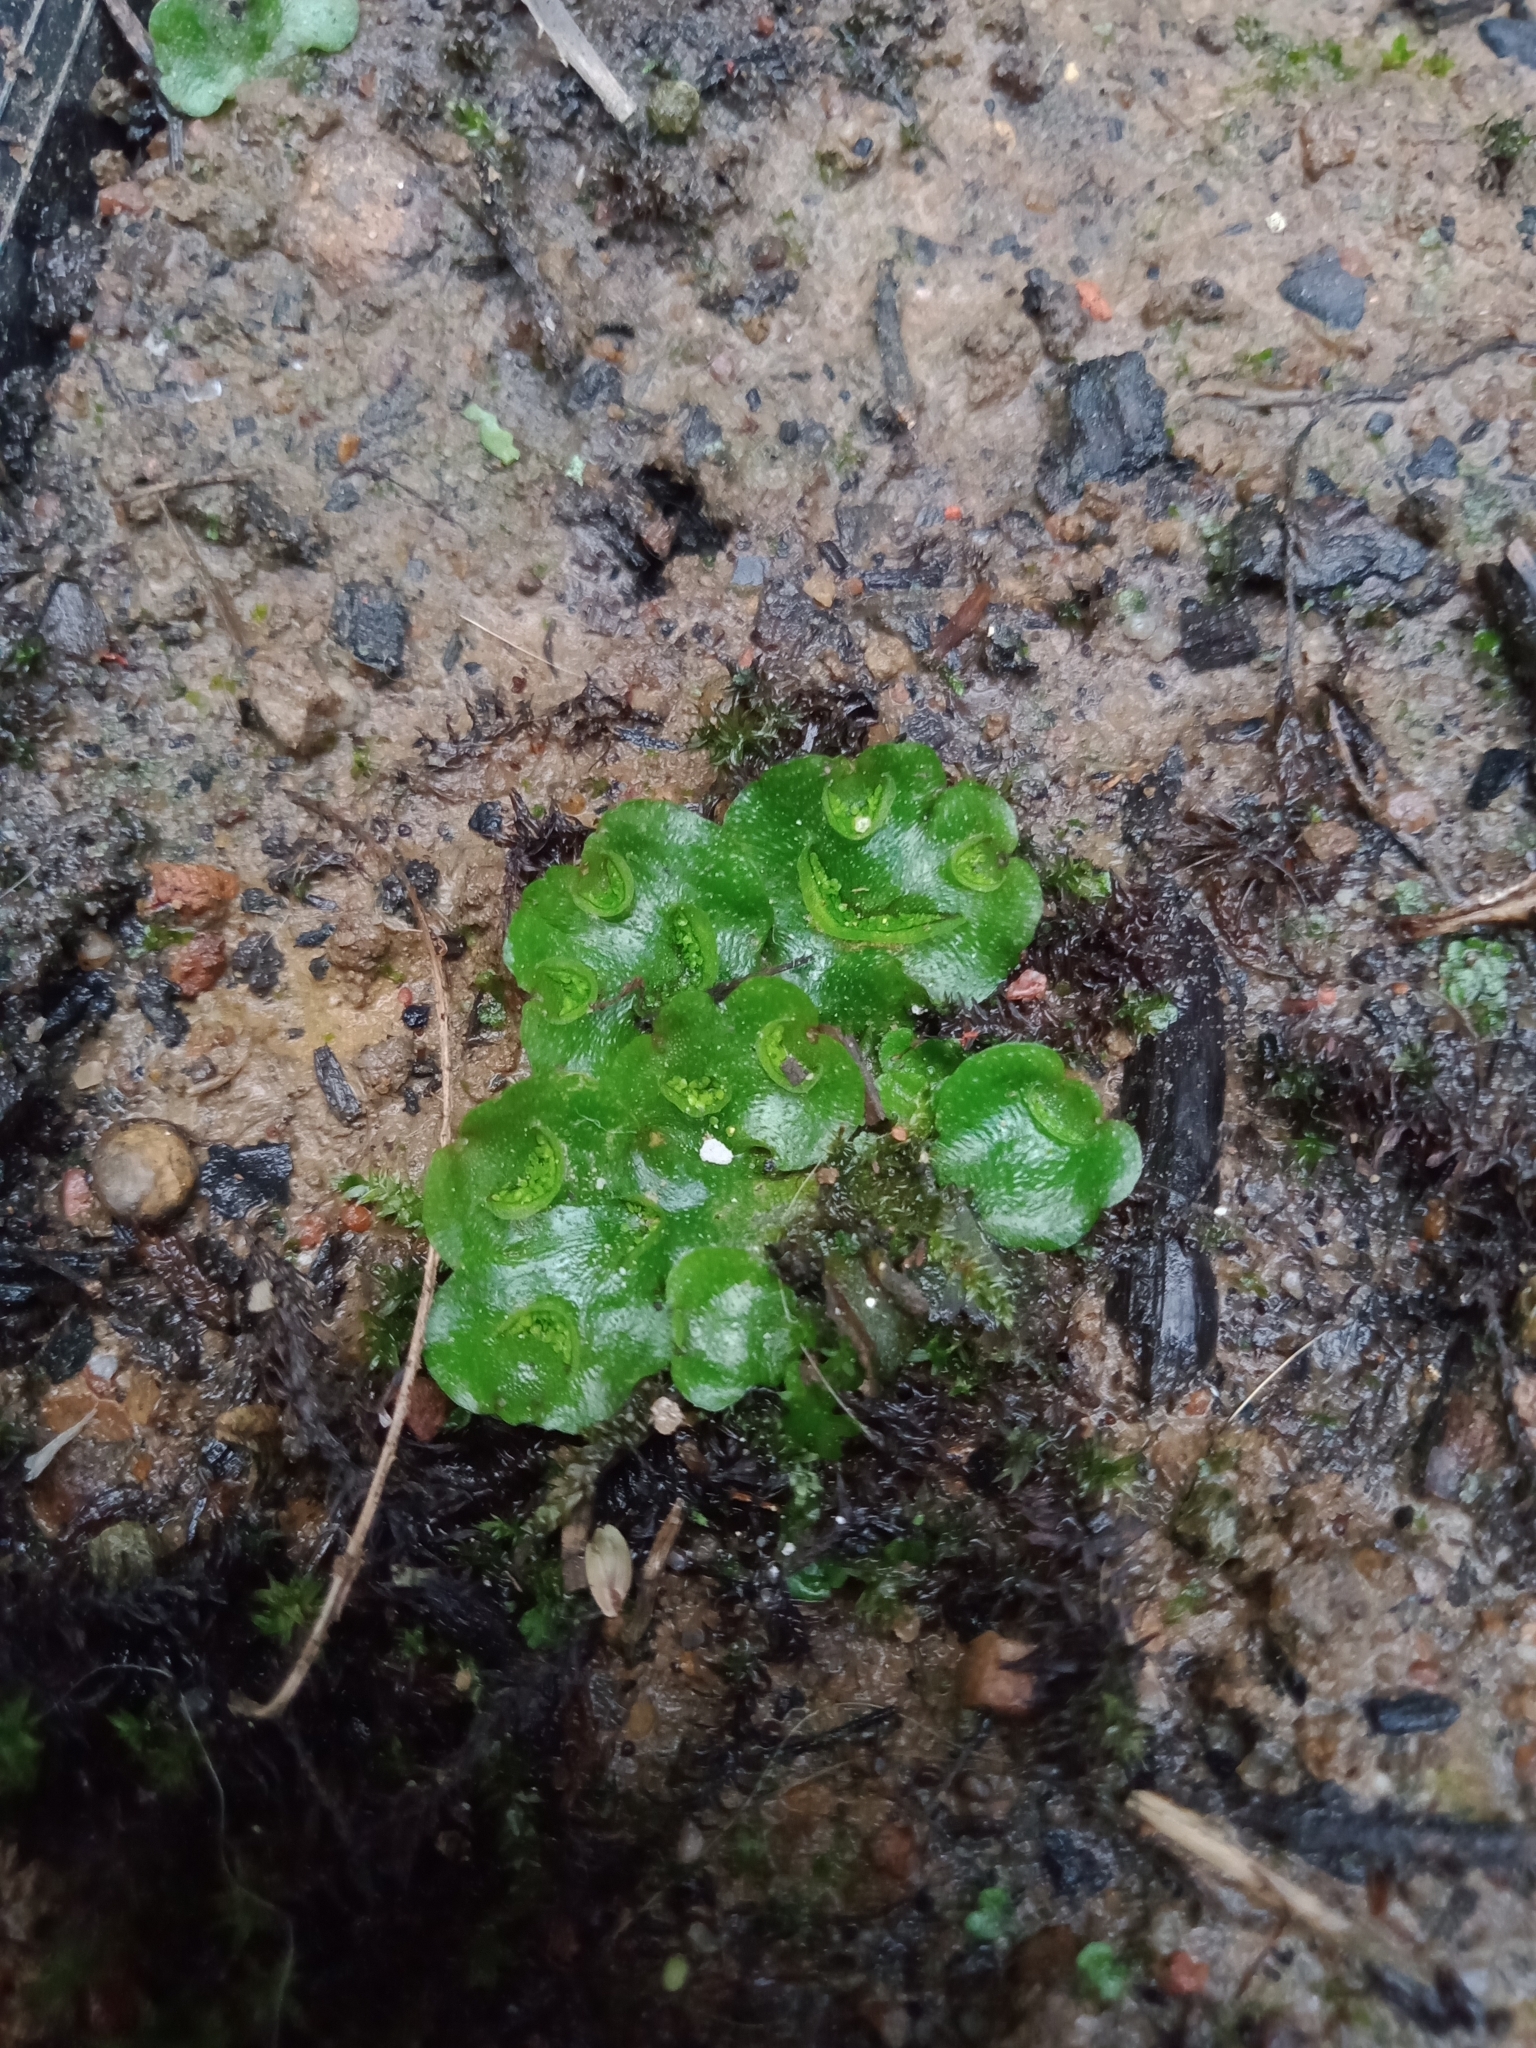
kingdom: Plantae
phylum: Marchantiophyta
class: Marchantiopsida
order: Lunulariales
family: Lunulariaceae
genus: Lunularia
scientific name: Lunularia cruciata
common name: Crescent-cup liverwort
